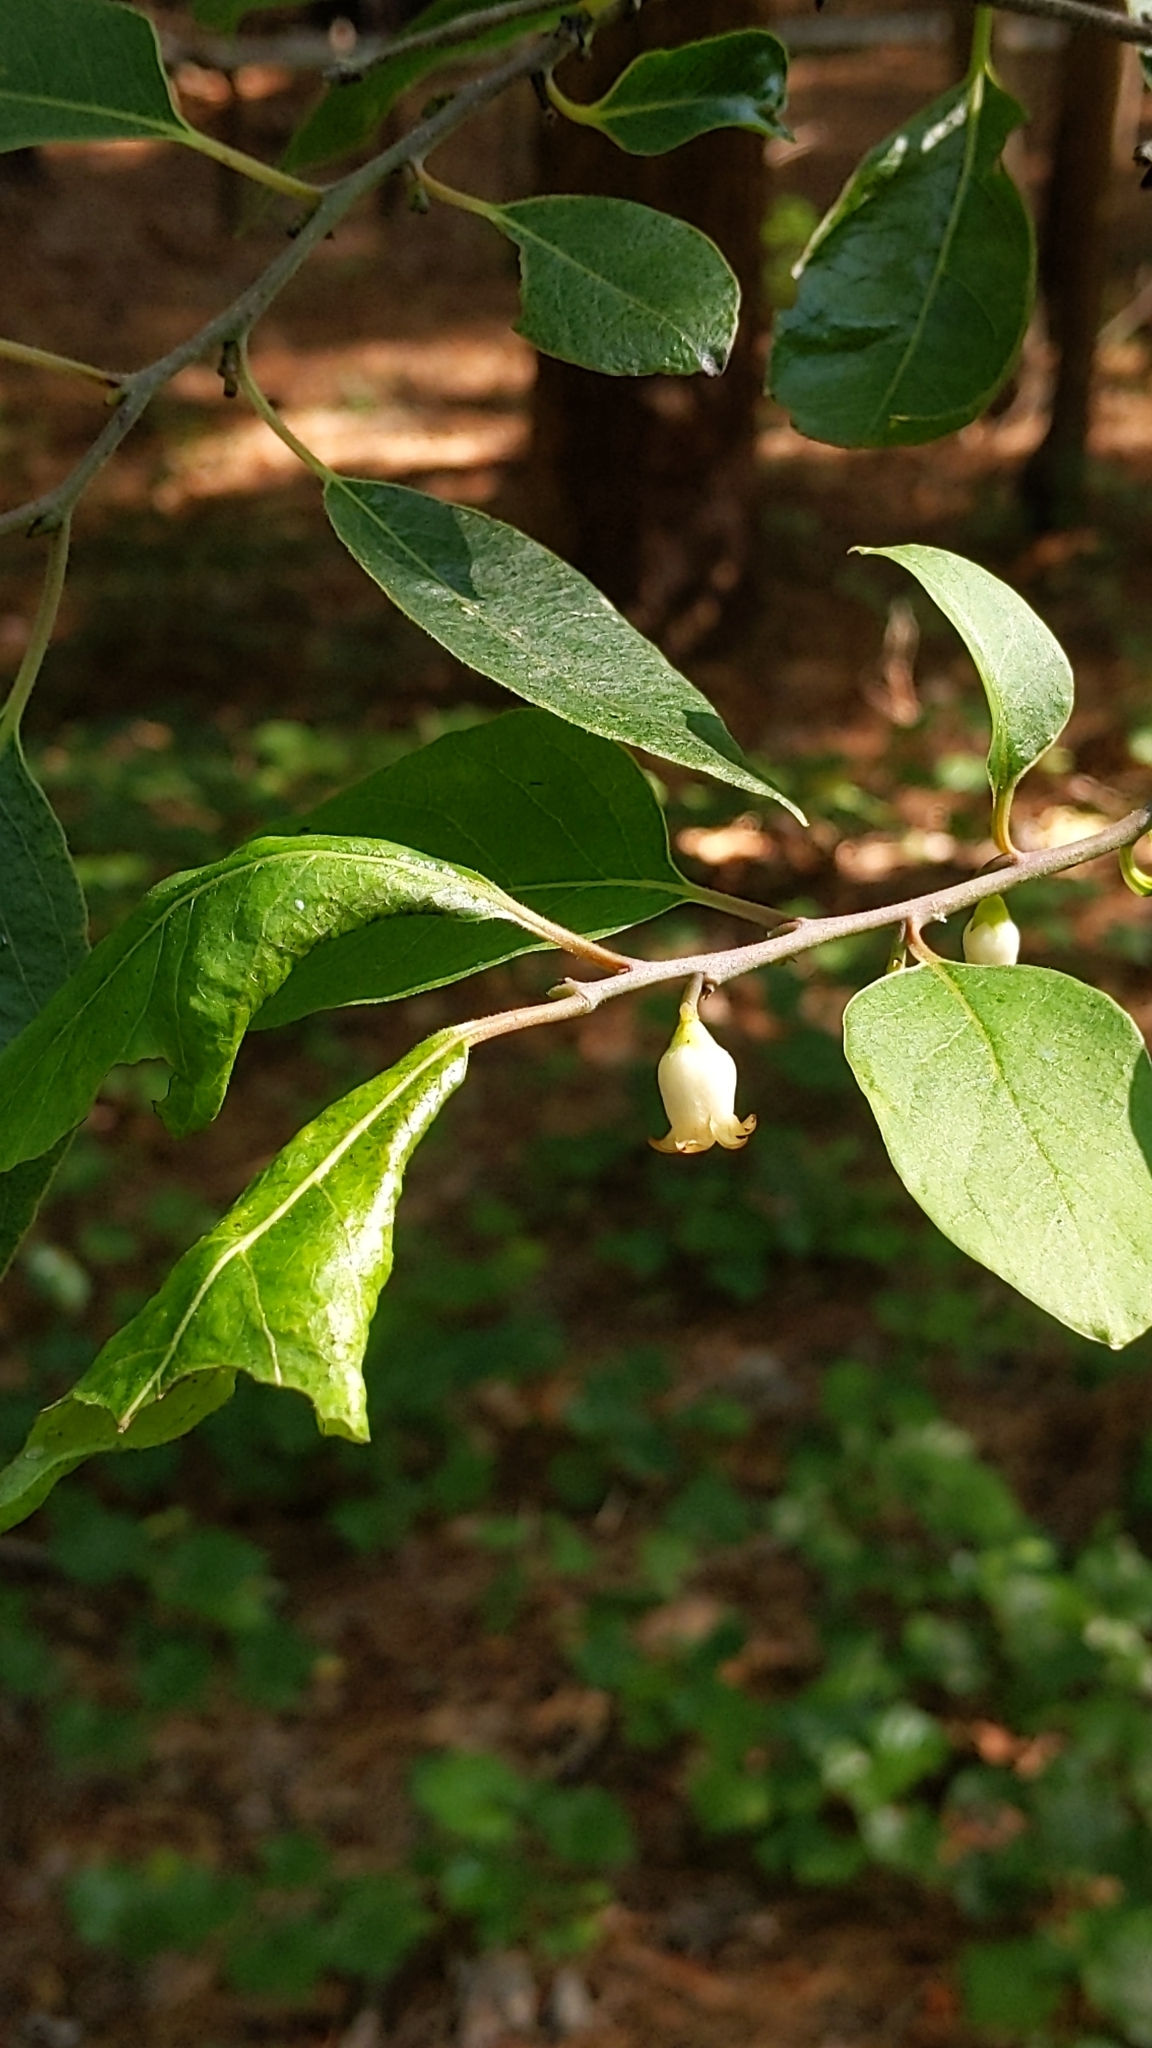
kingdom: Plantae
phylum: Tracheophyta
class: Magnoliopsida
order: Ericales
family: Ebenaceae
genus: Diospyros
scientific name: Diospyros virginiana
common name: Persimmon
